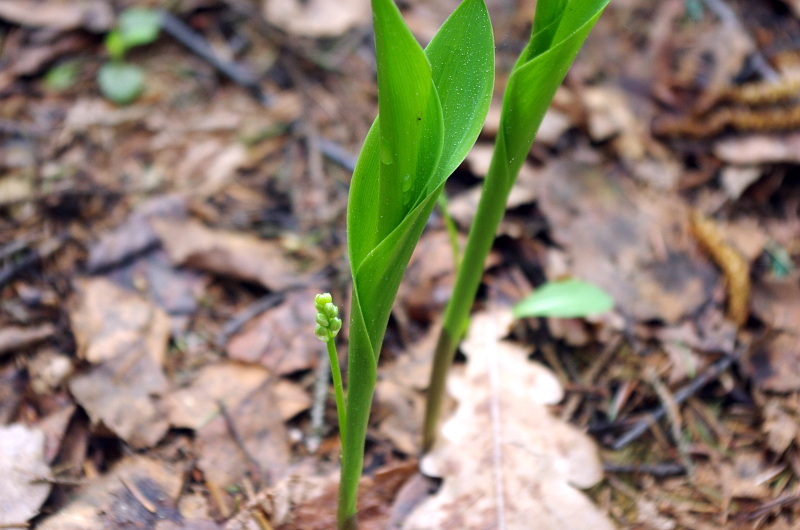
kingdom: Plantae
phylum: Tracheophyta
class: Liliopsida
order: Asparagales
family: Asparagaceae
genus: Convallaria
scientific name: Convallaria majalis
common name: Lily-of-the-valley
